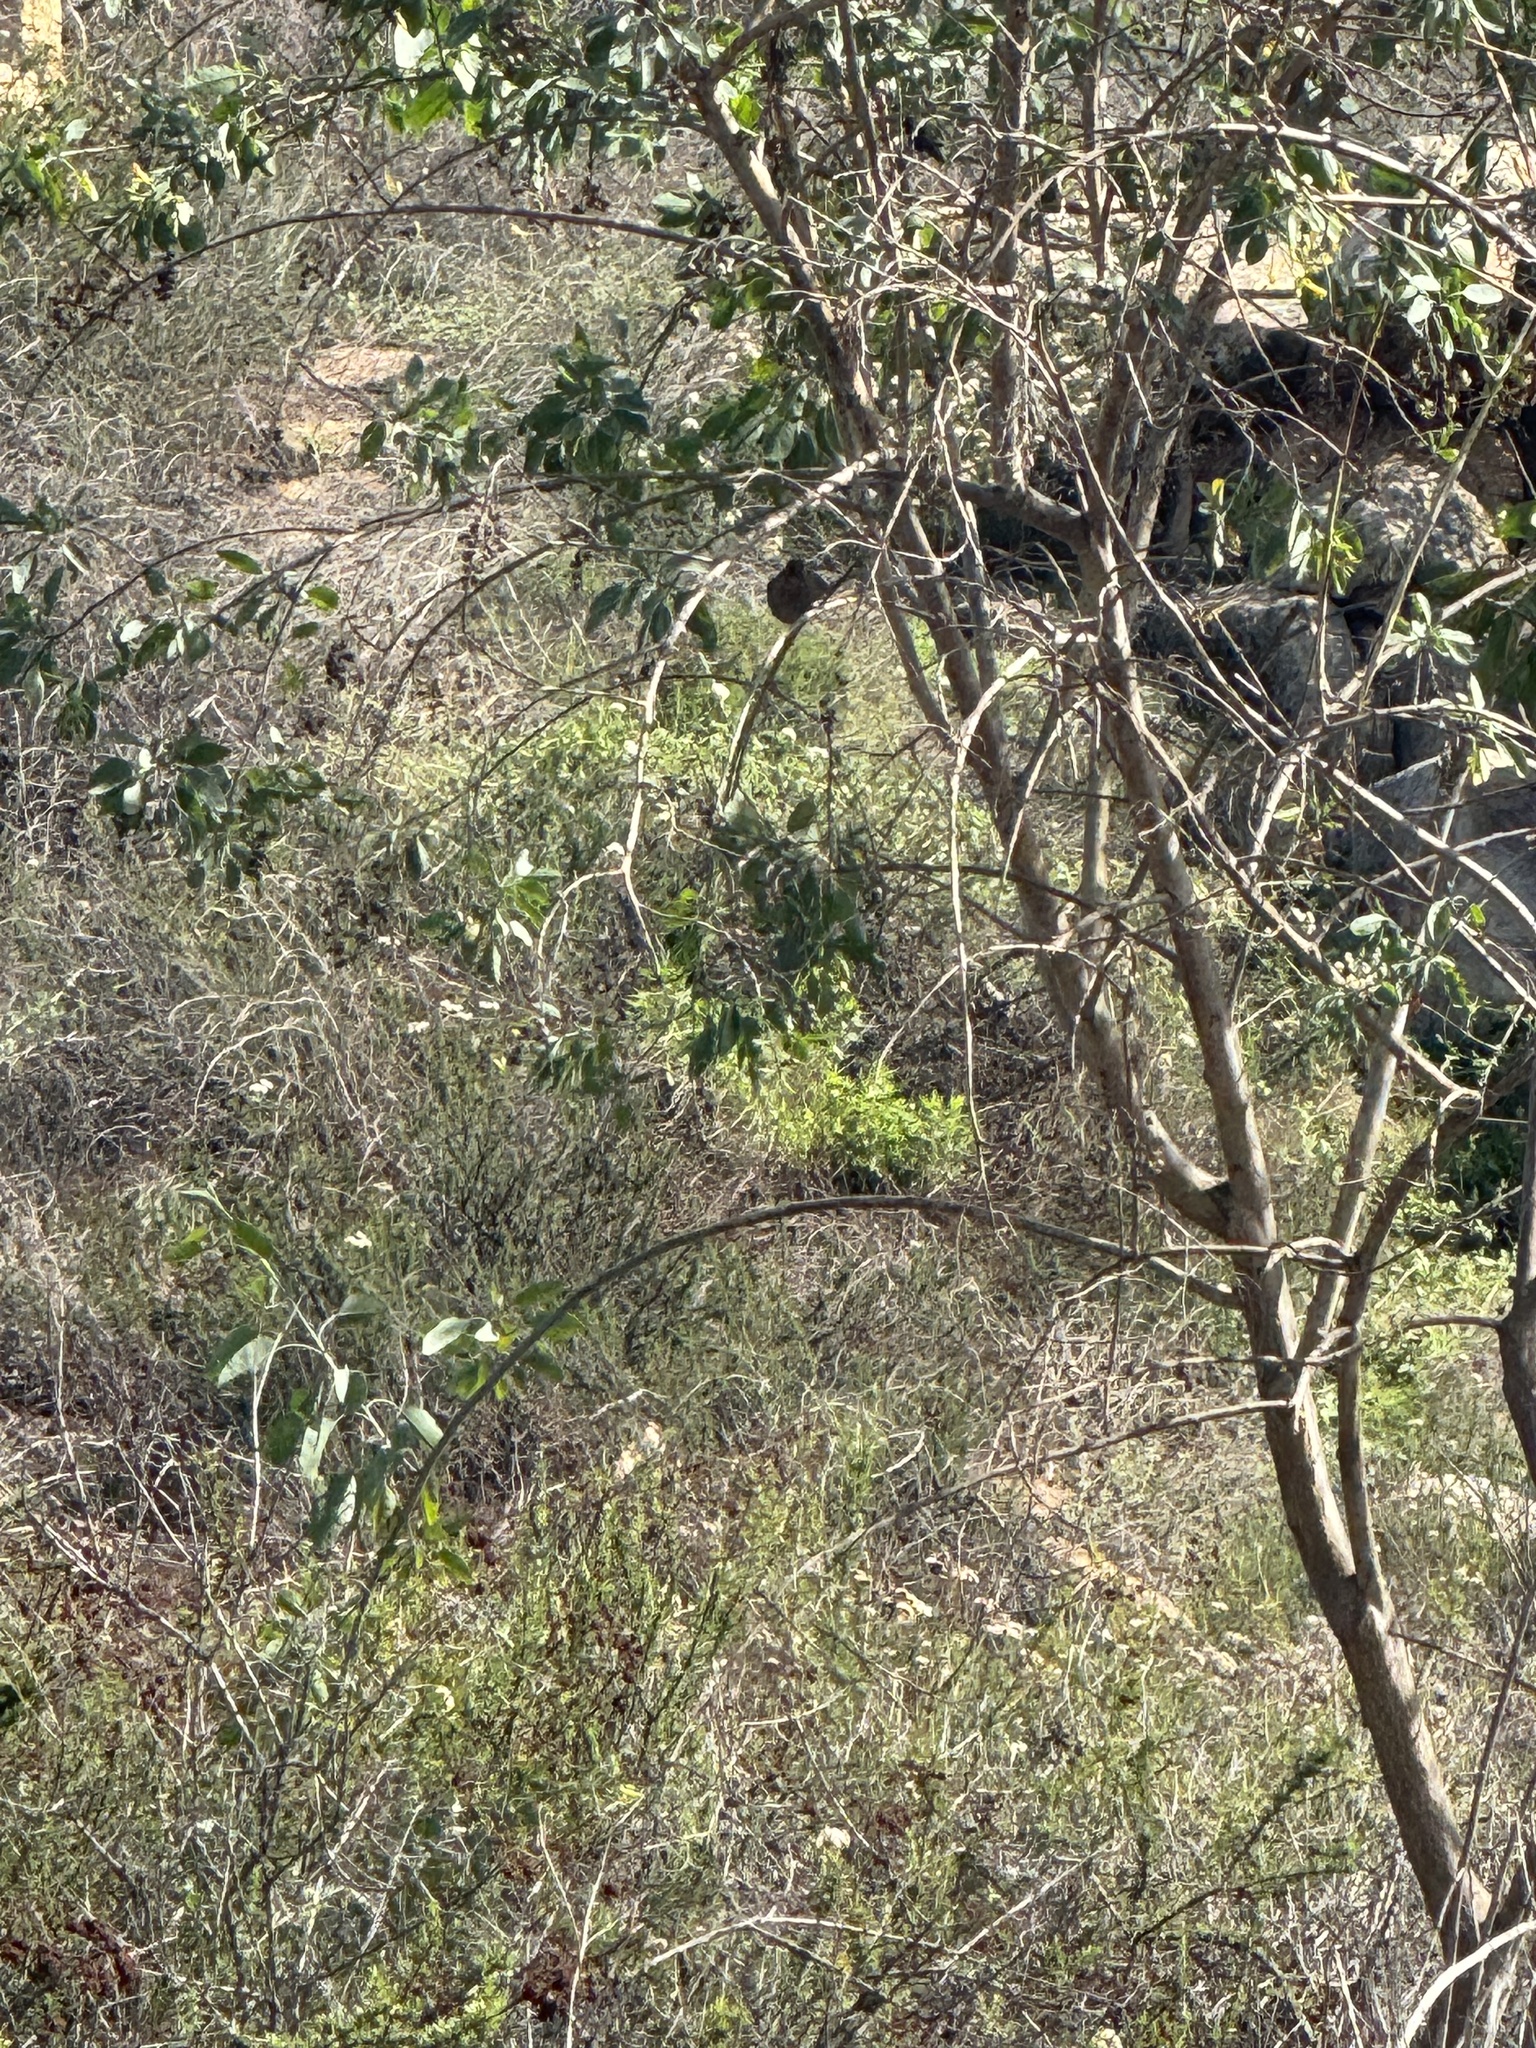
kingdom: Animalia
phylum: Chordata
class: Aves
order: Passeriformes
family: Passerellidae
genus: Melozone
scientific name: Melozone crissalis
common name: California towhee
